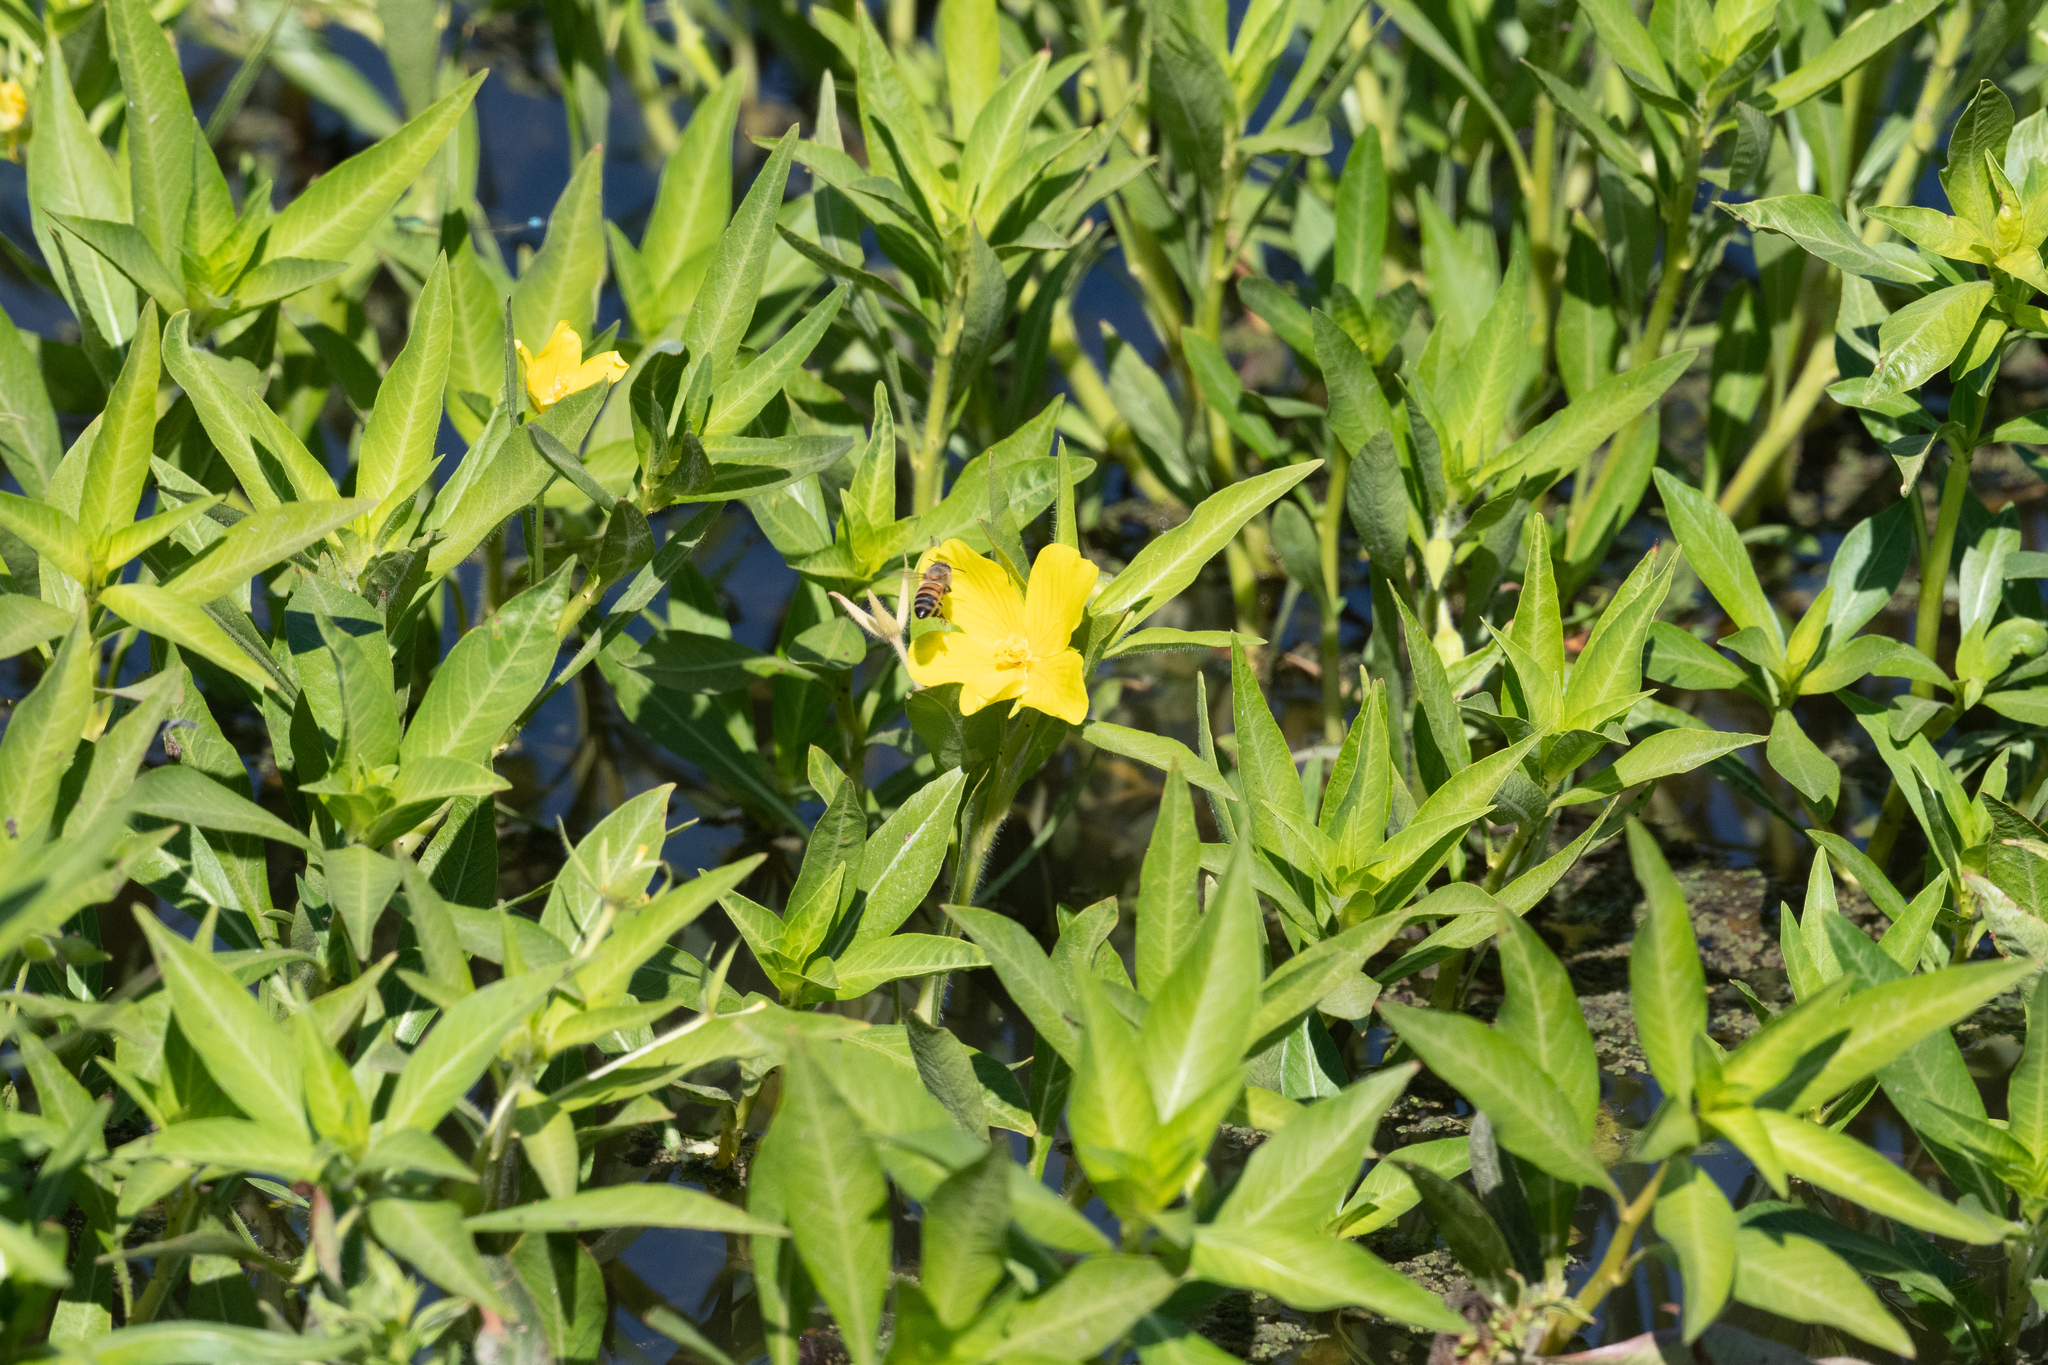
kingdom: Plantae
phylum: Tracheophyta
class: Magnoliopsida
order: Myrtales
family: Onagraceae
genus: Ludwigia
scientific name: Ludwigia hexapetala
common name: Water-primrose
